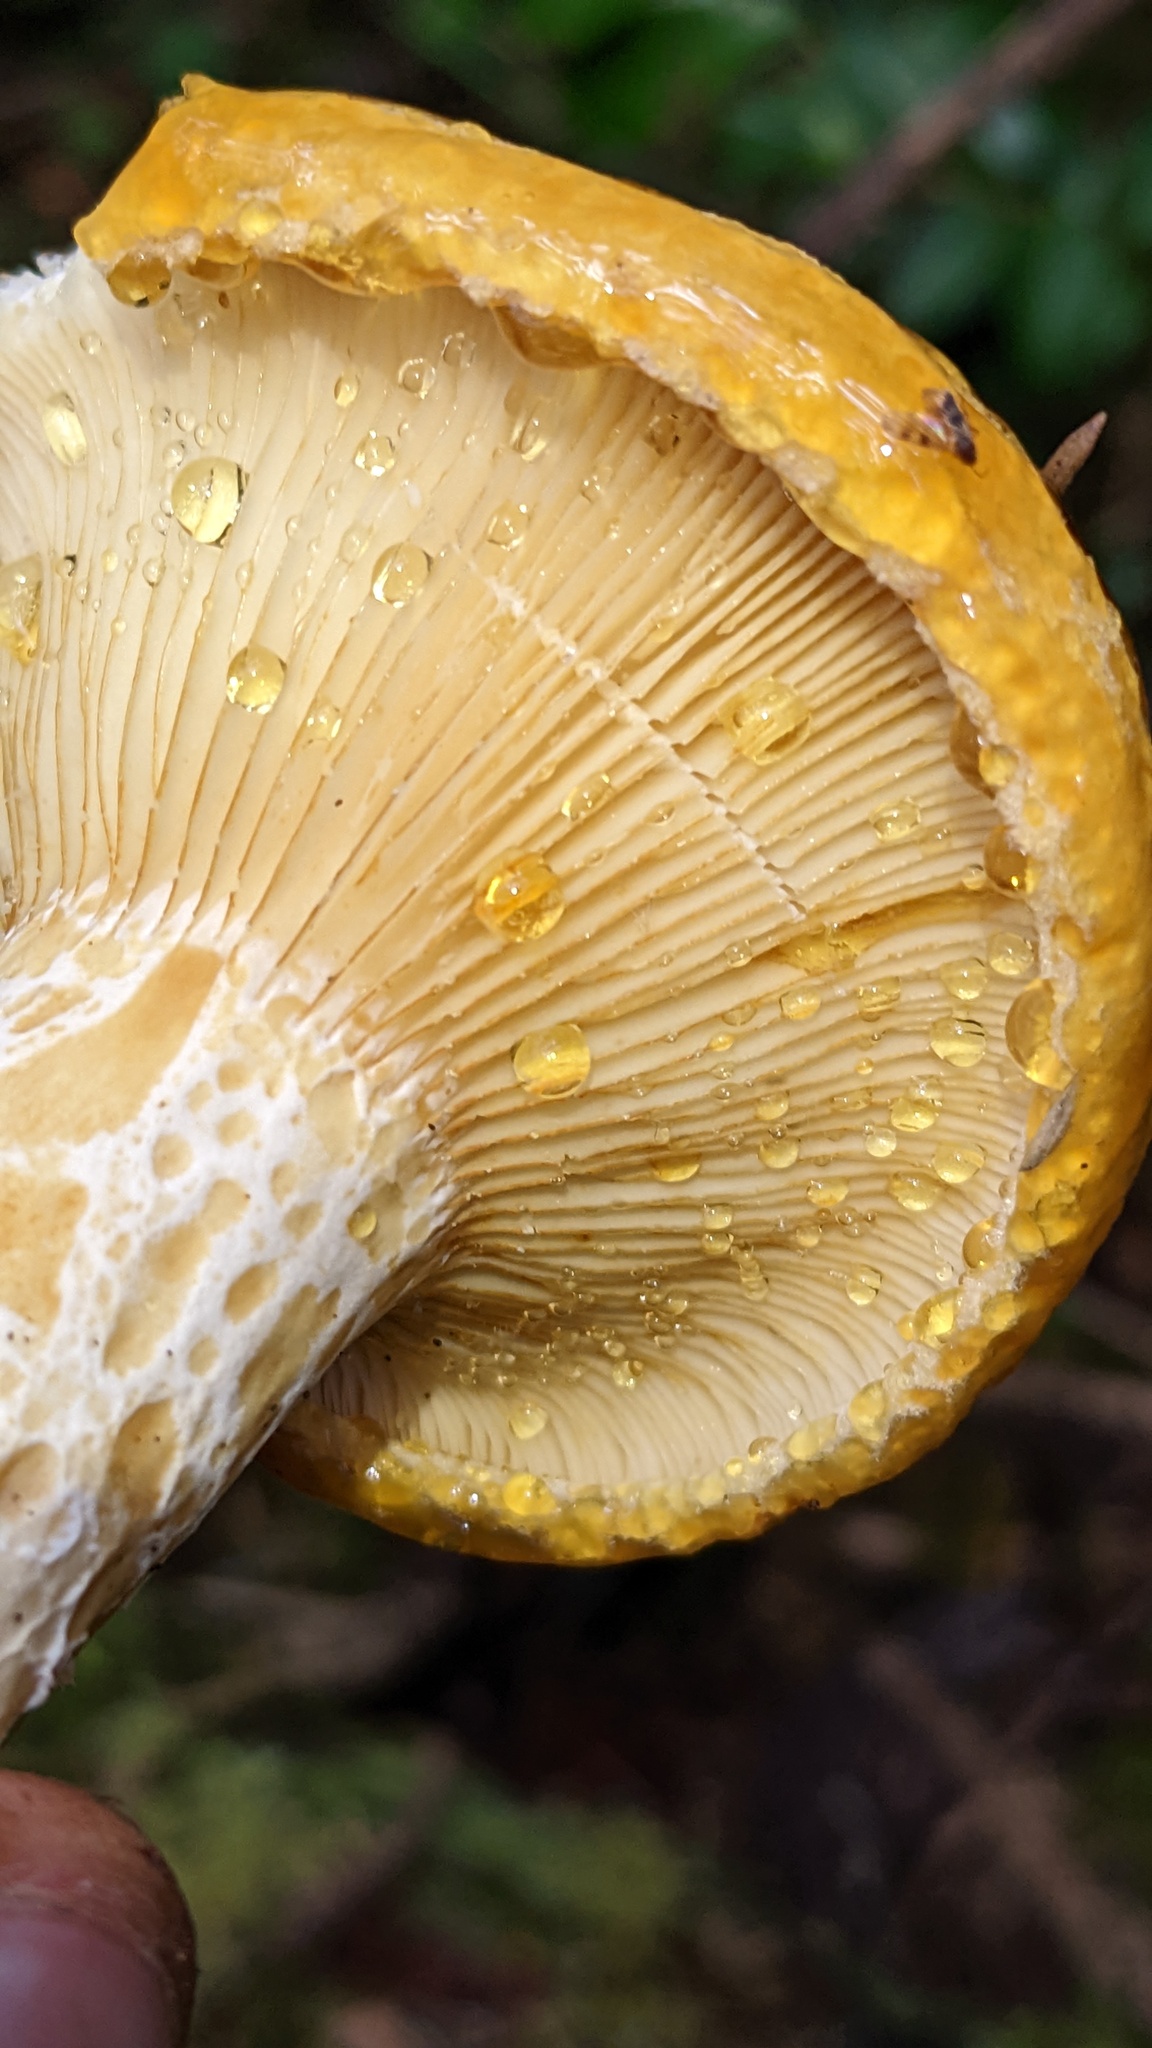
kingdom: Fungi
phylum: Basidiomycota
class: Agaricomycetes
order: Russulales
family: Russulaceae
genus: Lactarius
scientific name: Lactarius scrobiculatus
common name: Spotted milkcap
